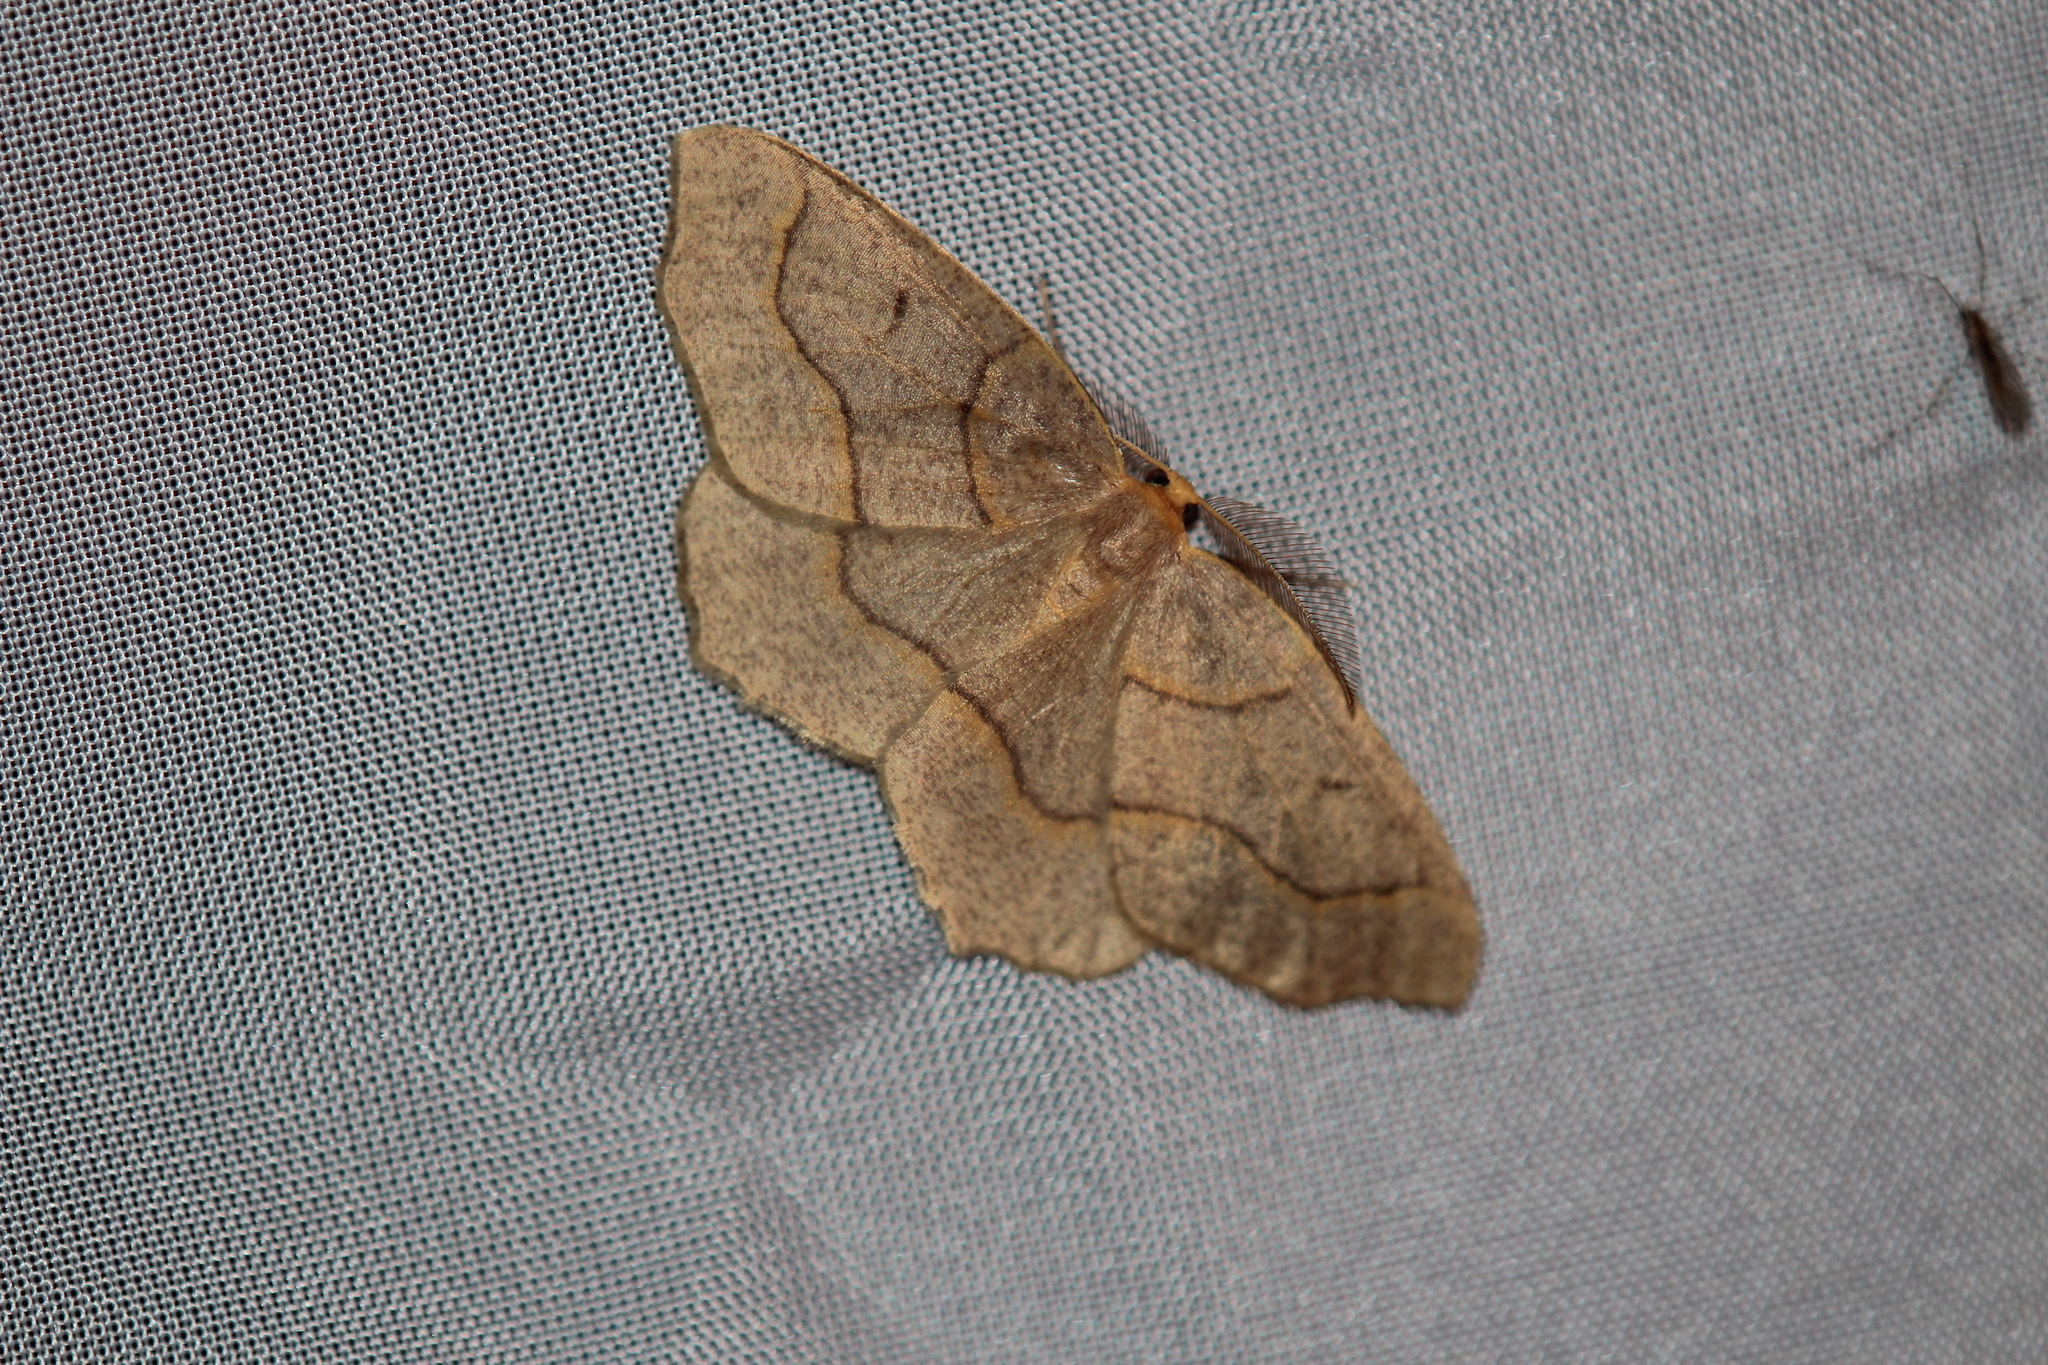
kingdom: Animalia
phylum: Arthropoda
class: Insecta
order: Lepidoptera
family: Geometridae
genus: Lambdina
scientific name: Lambdina fiscellaria
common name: Hemlock looper
